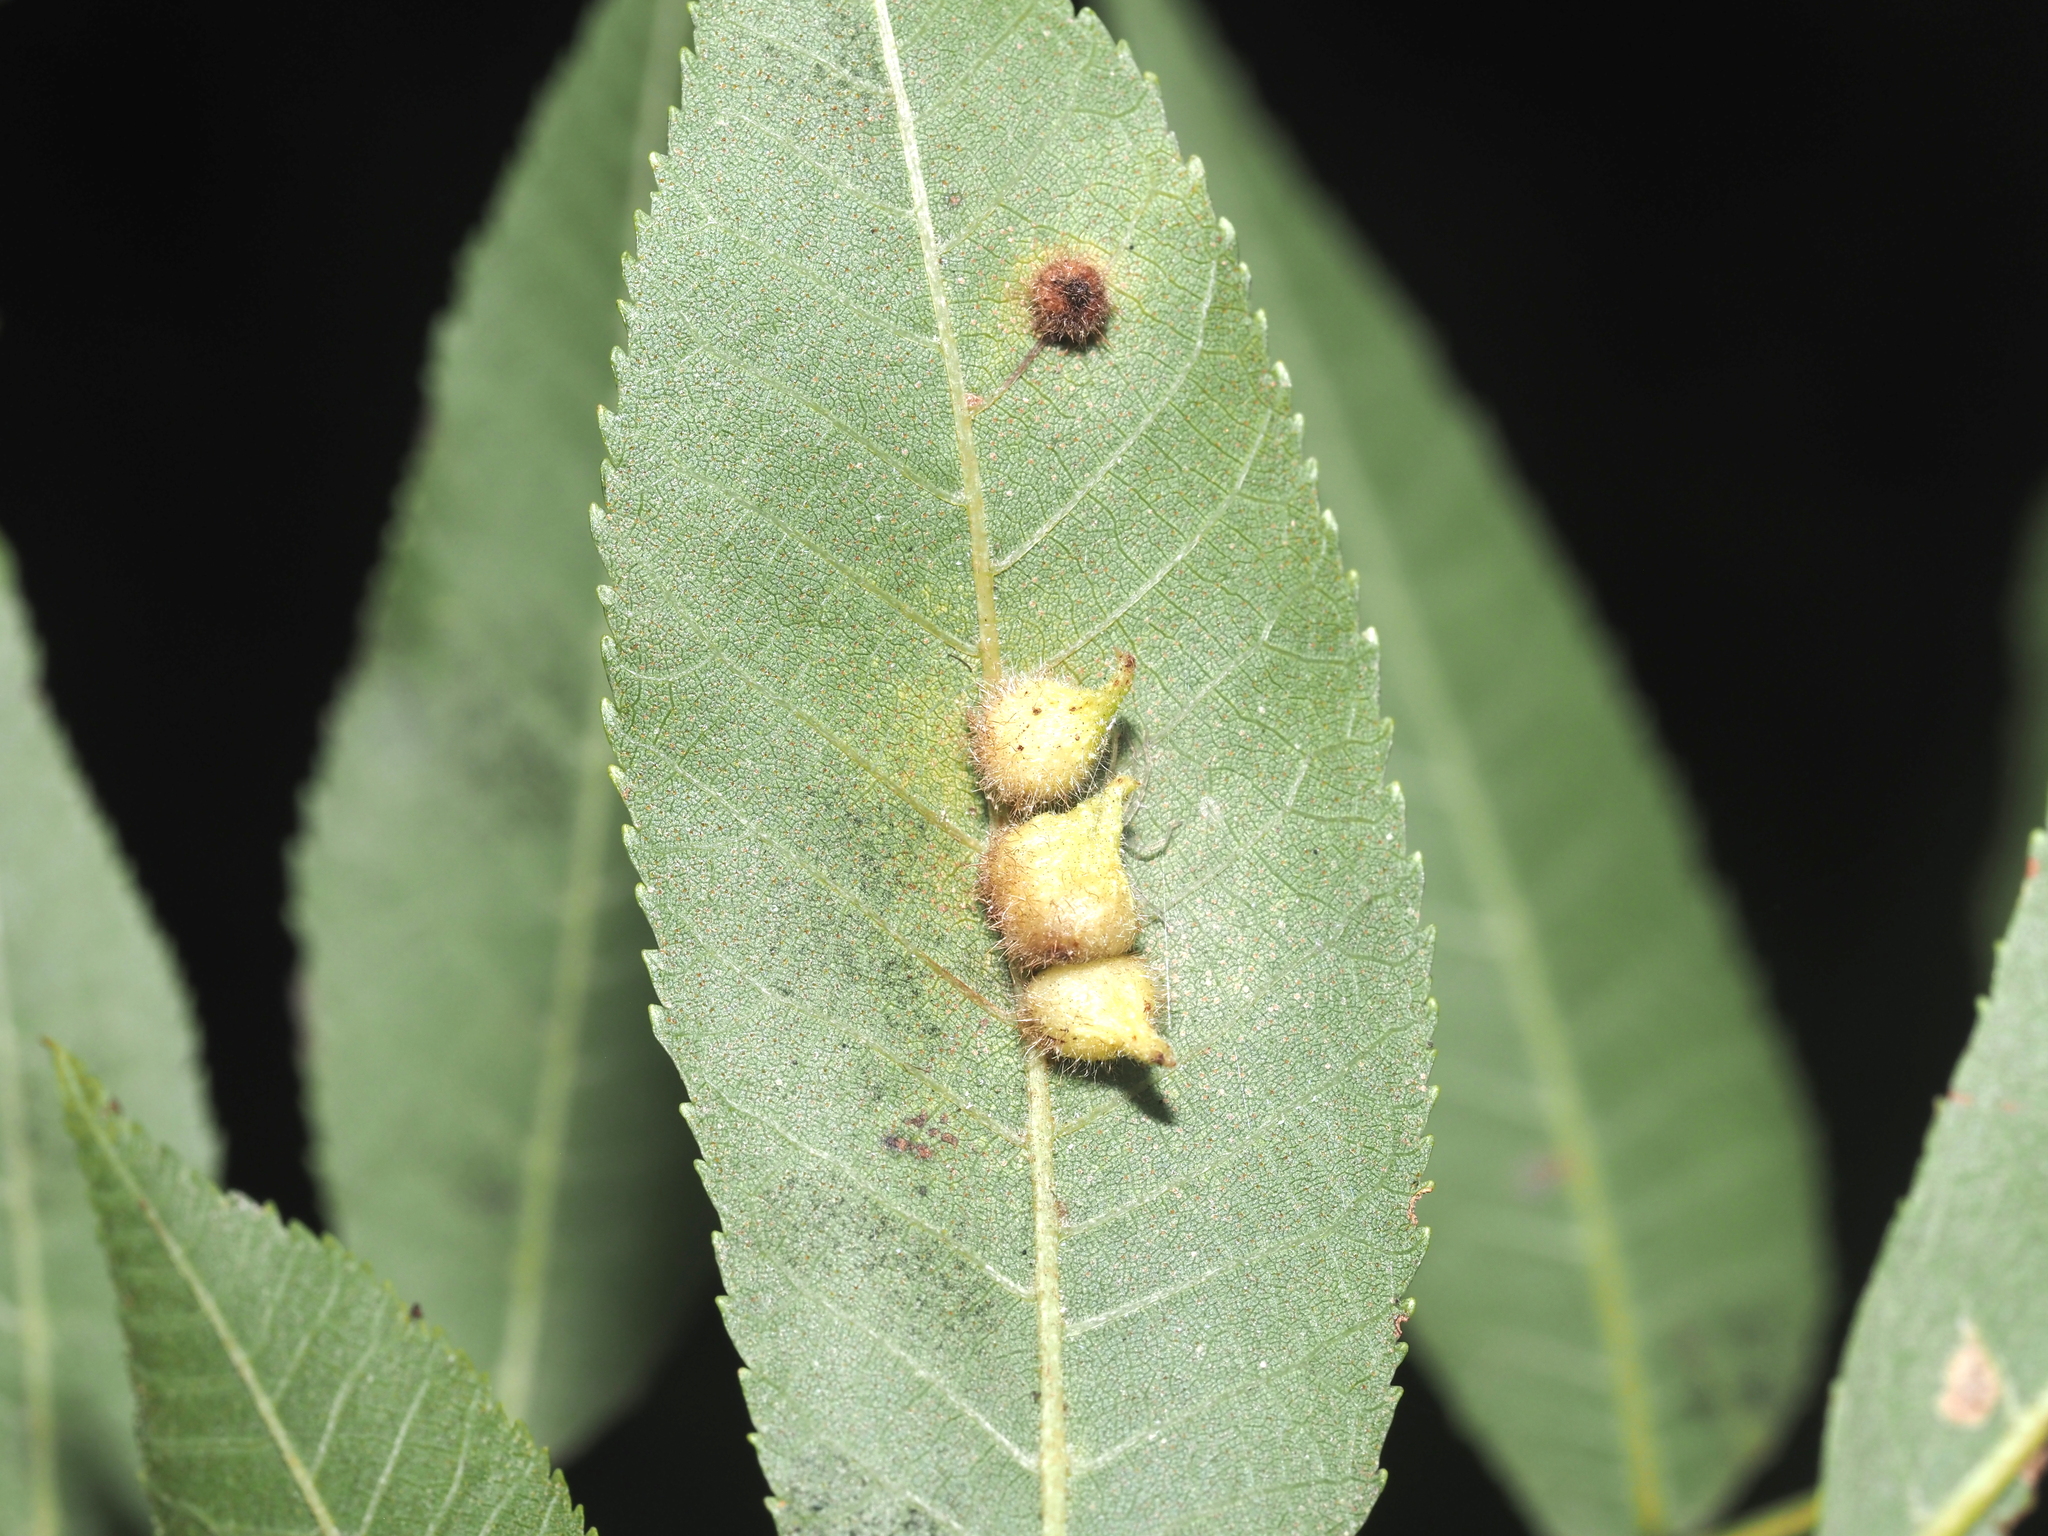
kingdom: Animalia
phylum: Arthropoda
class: Insecta
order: Diptera
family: Cecidomyiidae
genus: Caryomyia
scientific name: Caryomyia ansericollum
